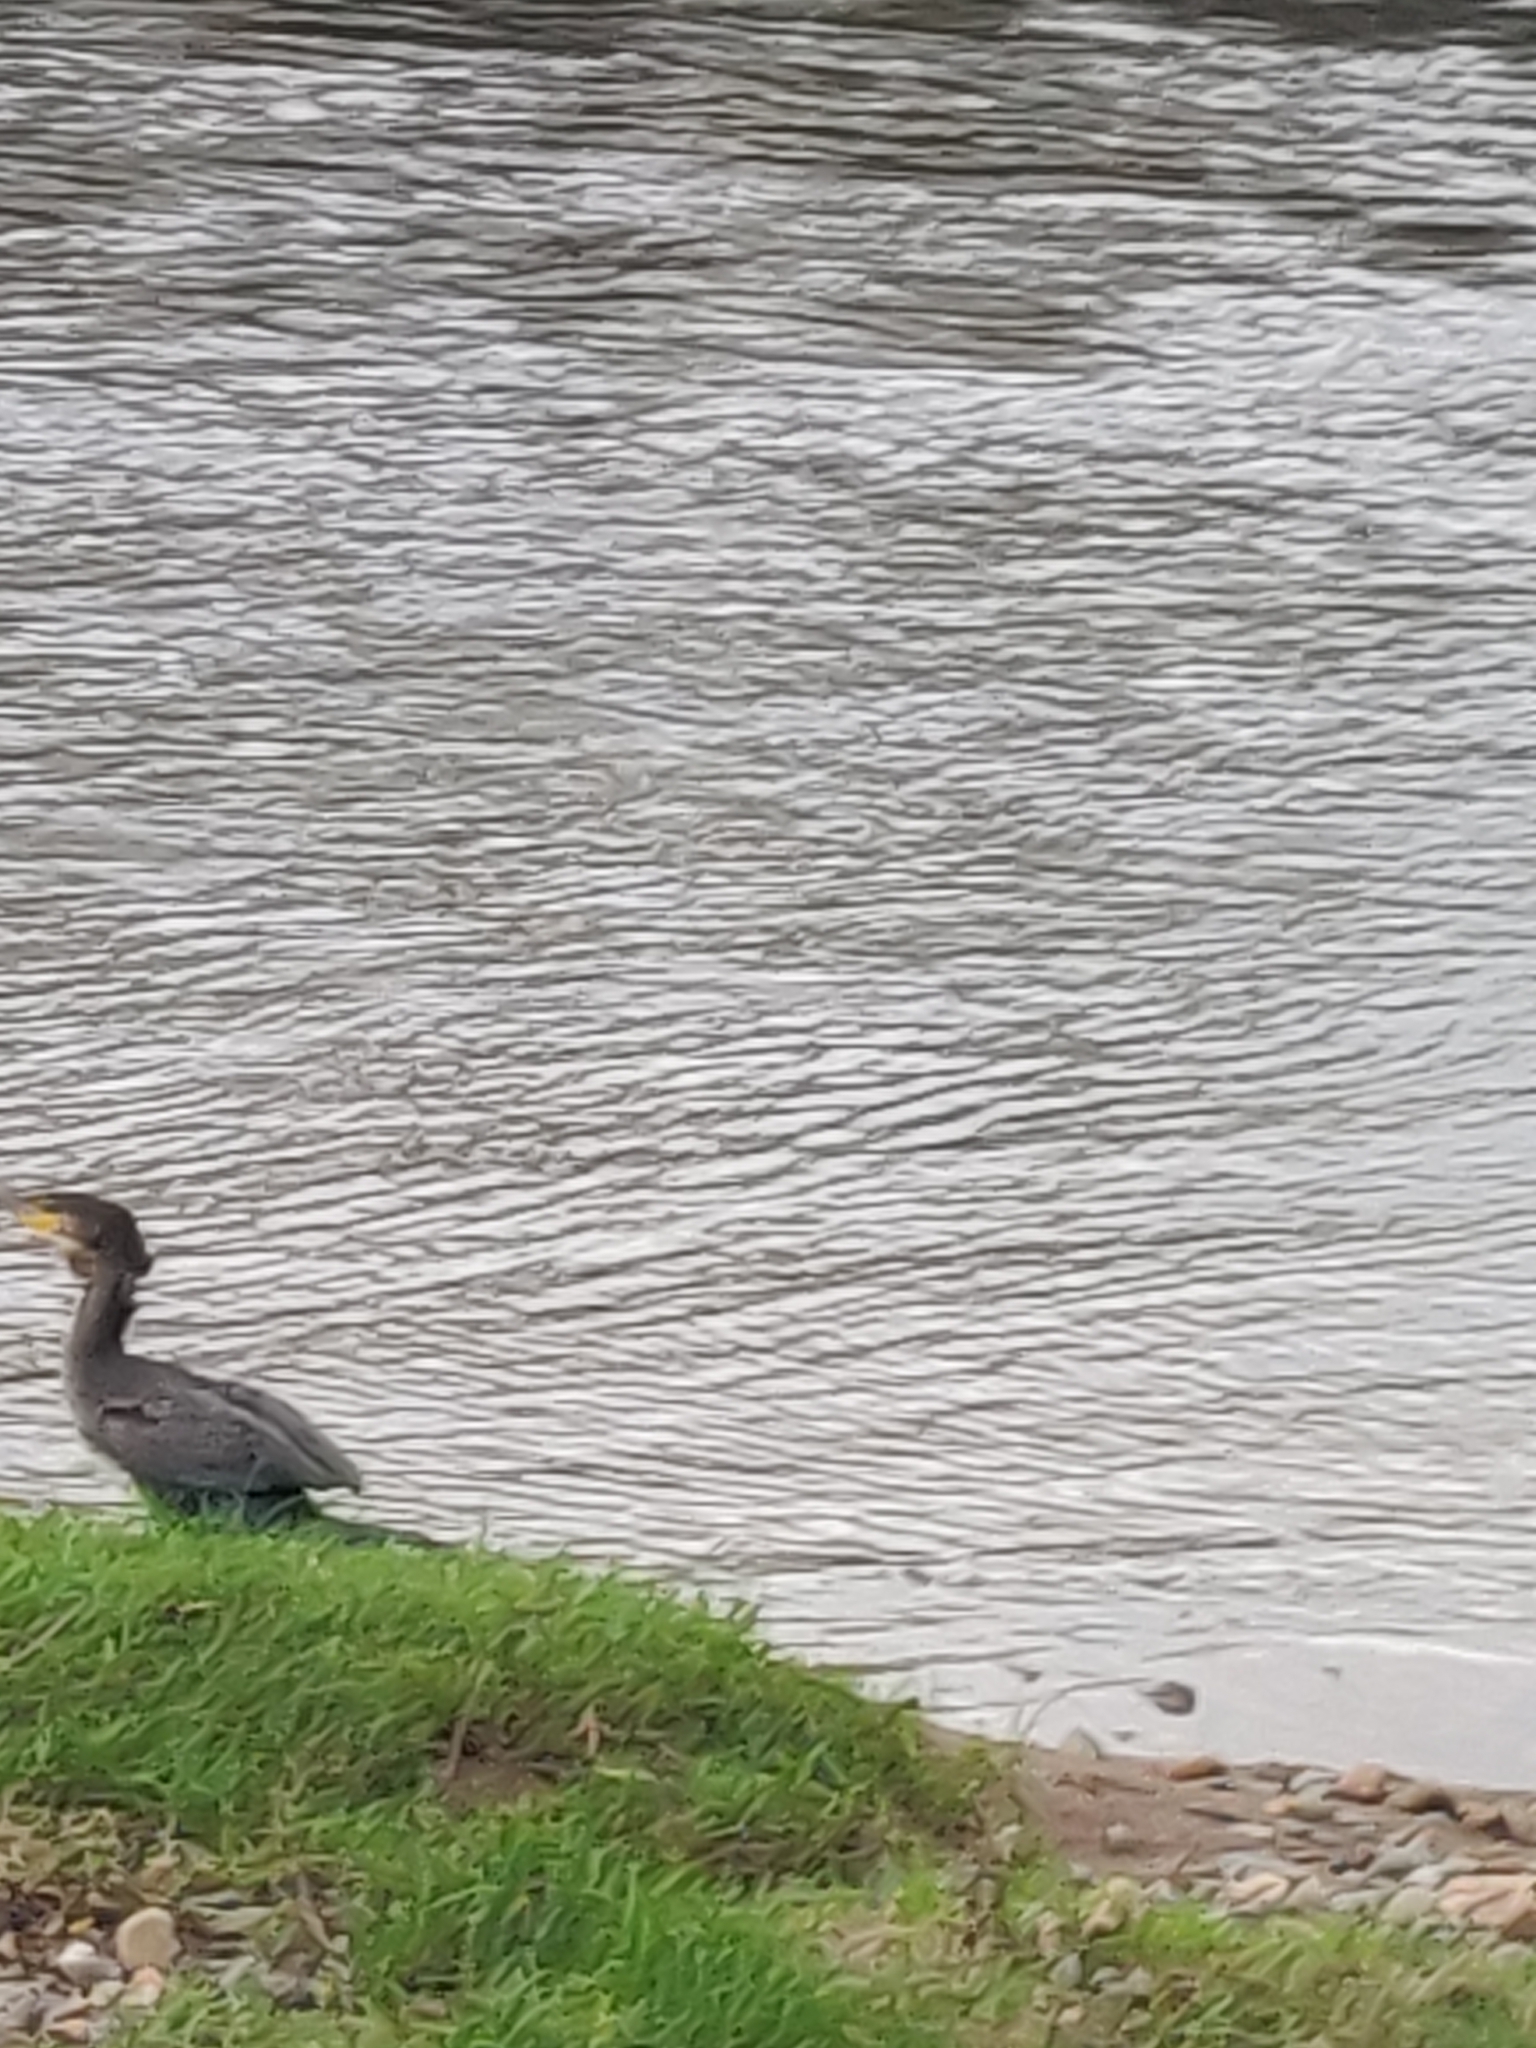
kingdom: Animalia
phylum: Chordata
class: Aves
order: Suliformes
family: Phalacrocoracidae
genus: Phalacrocorax
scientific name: Phalacrocorax carbo
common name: Great cormorant
